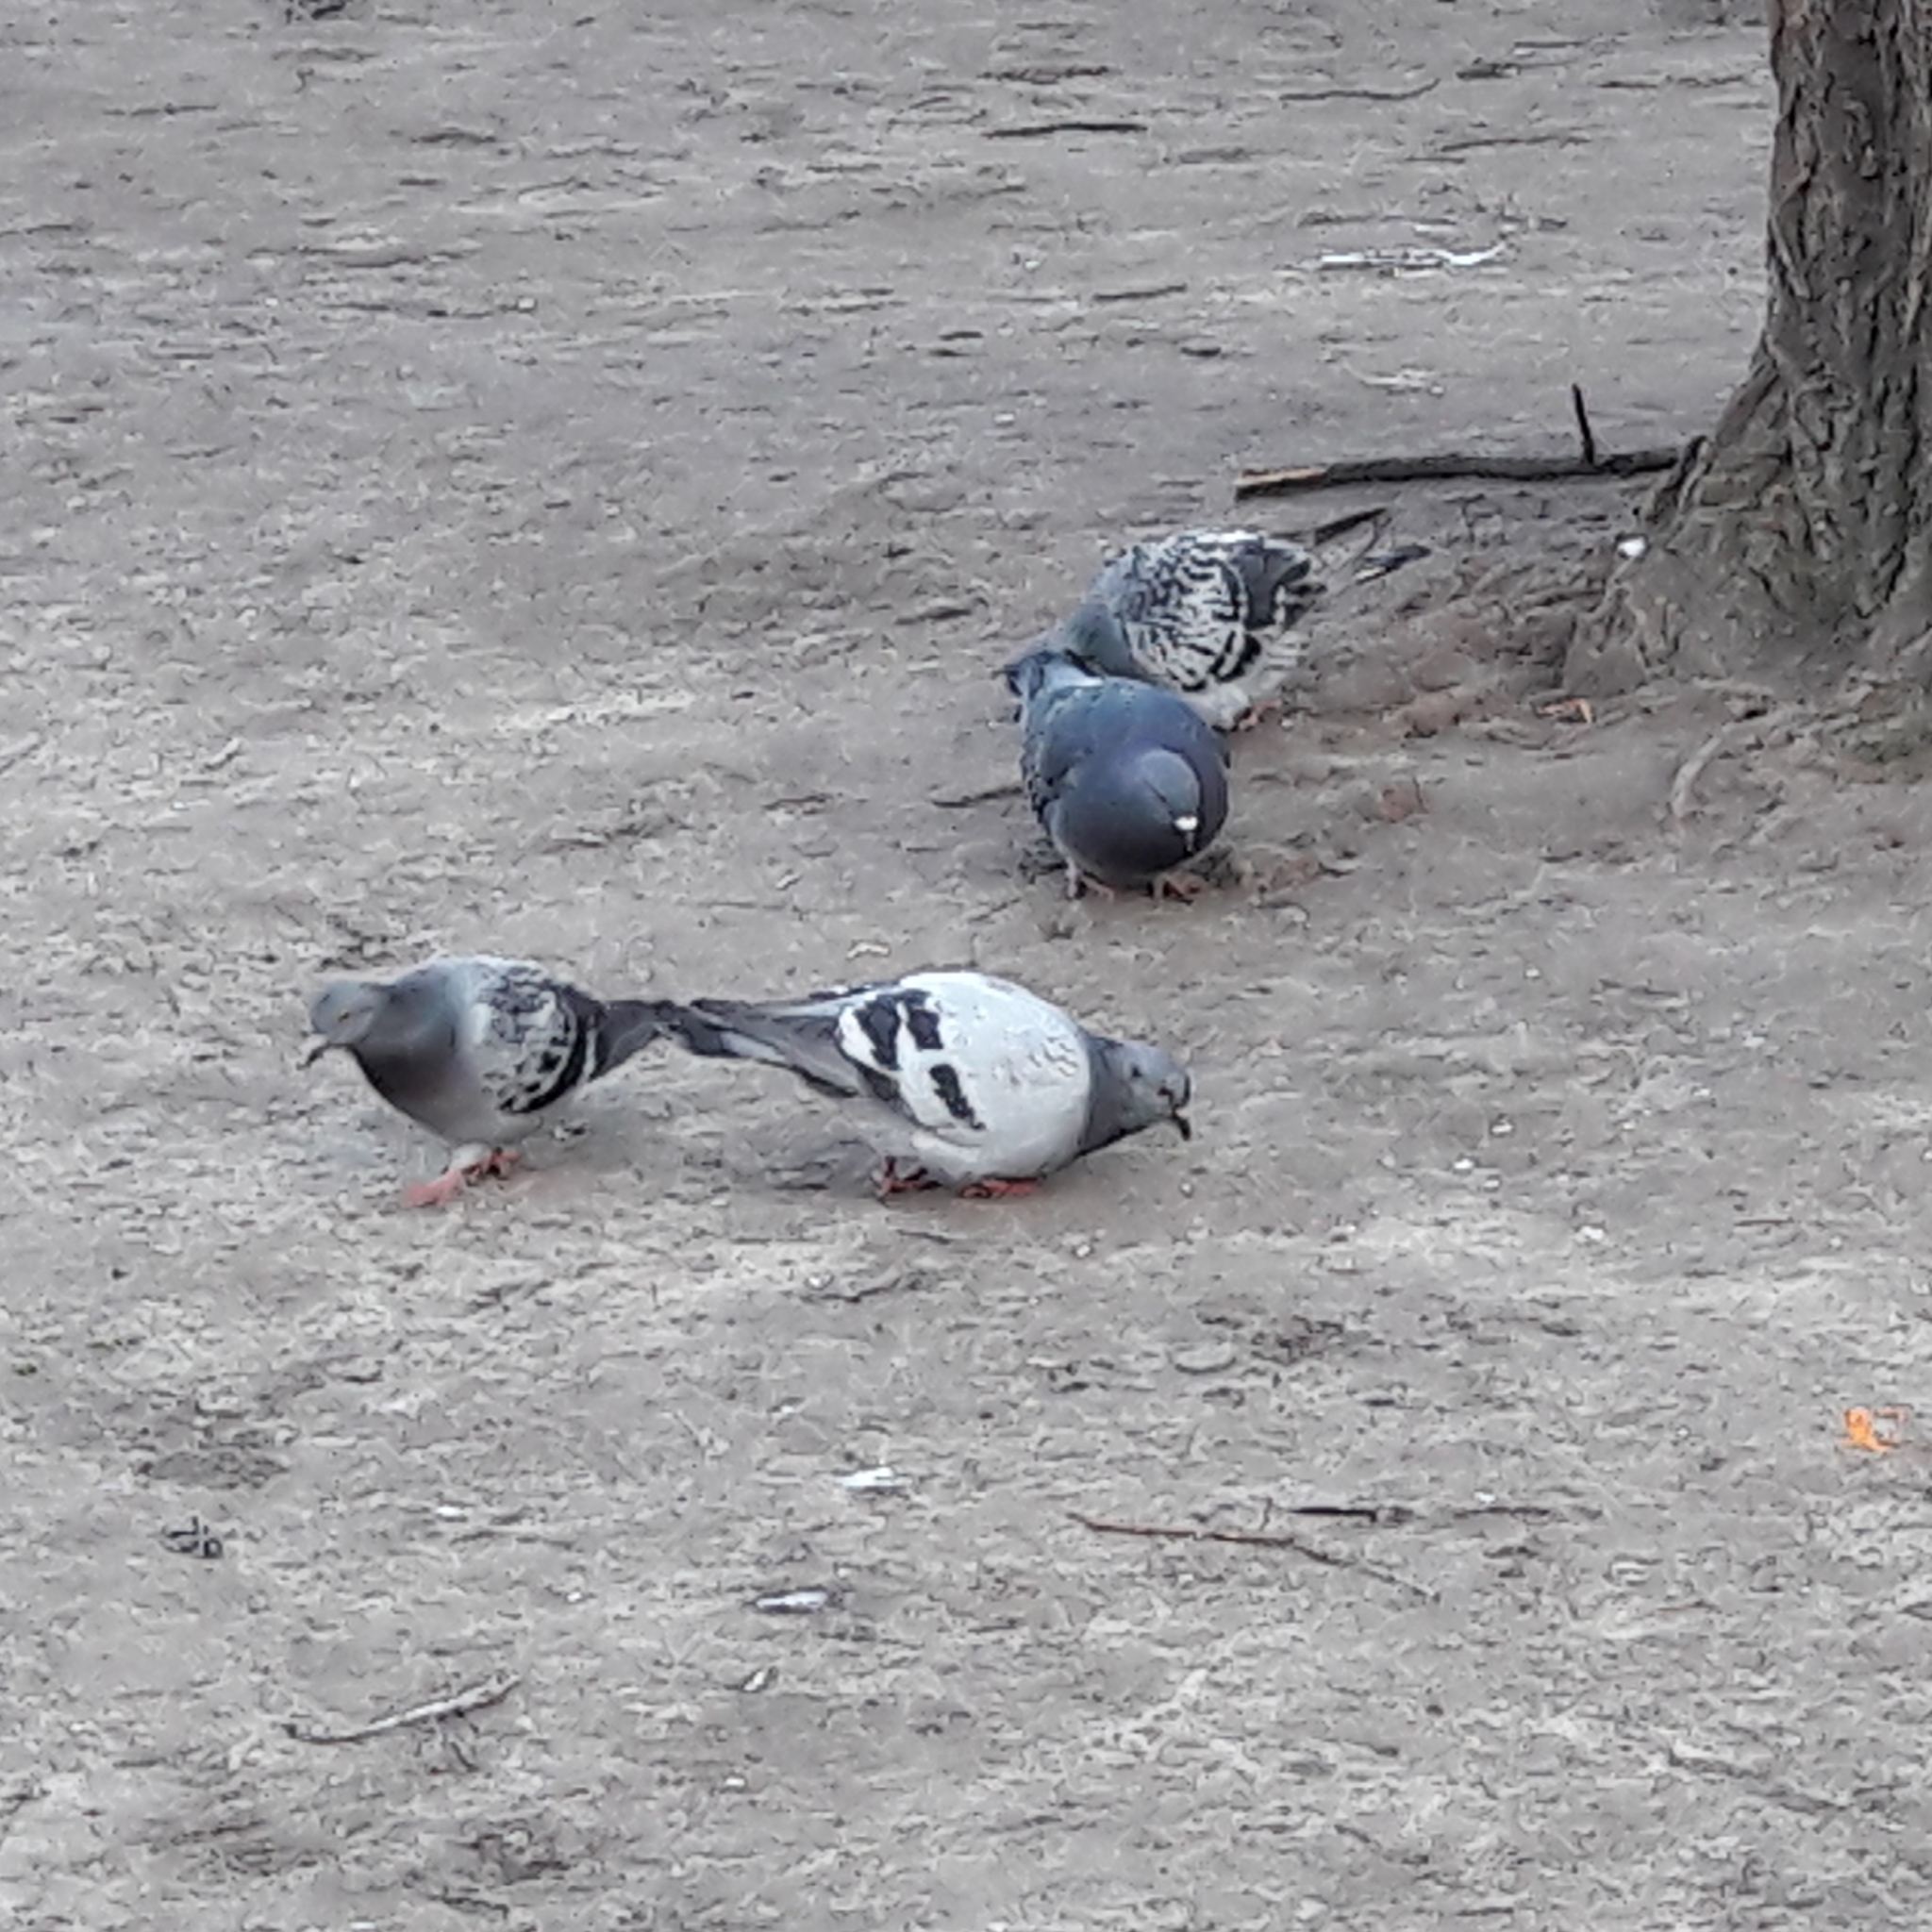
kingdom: Animalia
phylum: Chordata
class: Aves
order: Columbiformes
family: Columbidae
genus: Columba
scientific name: Columba livia
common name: Rock pigeon
